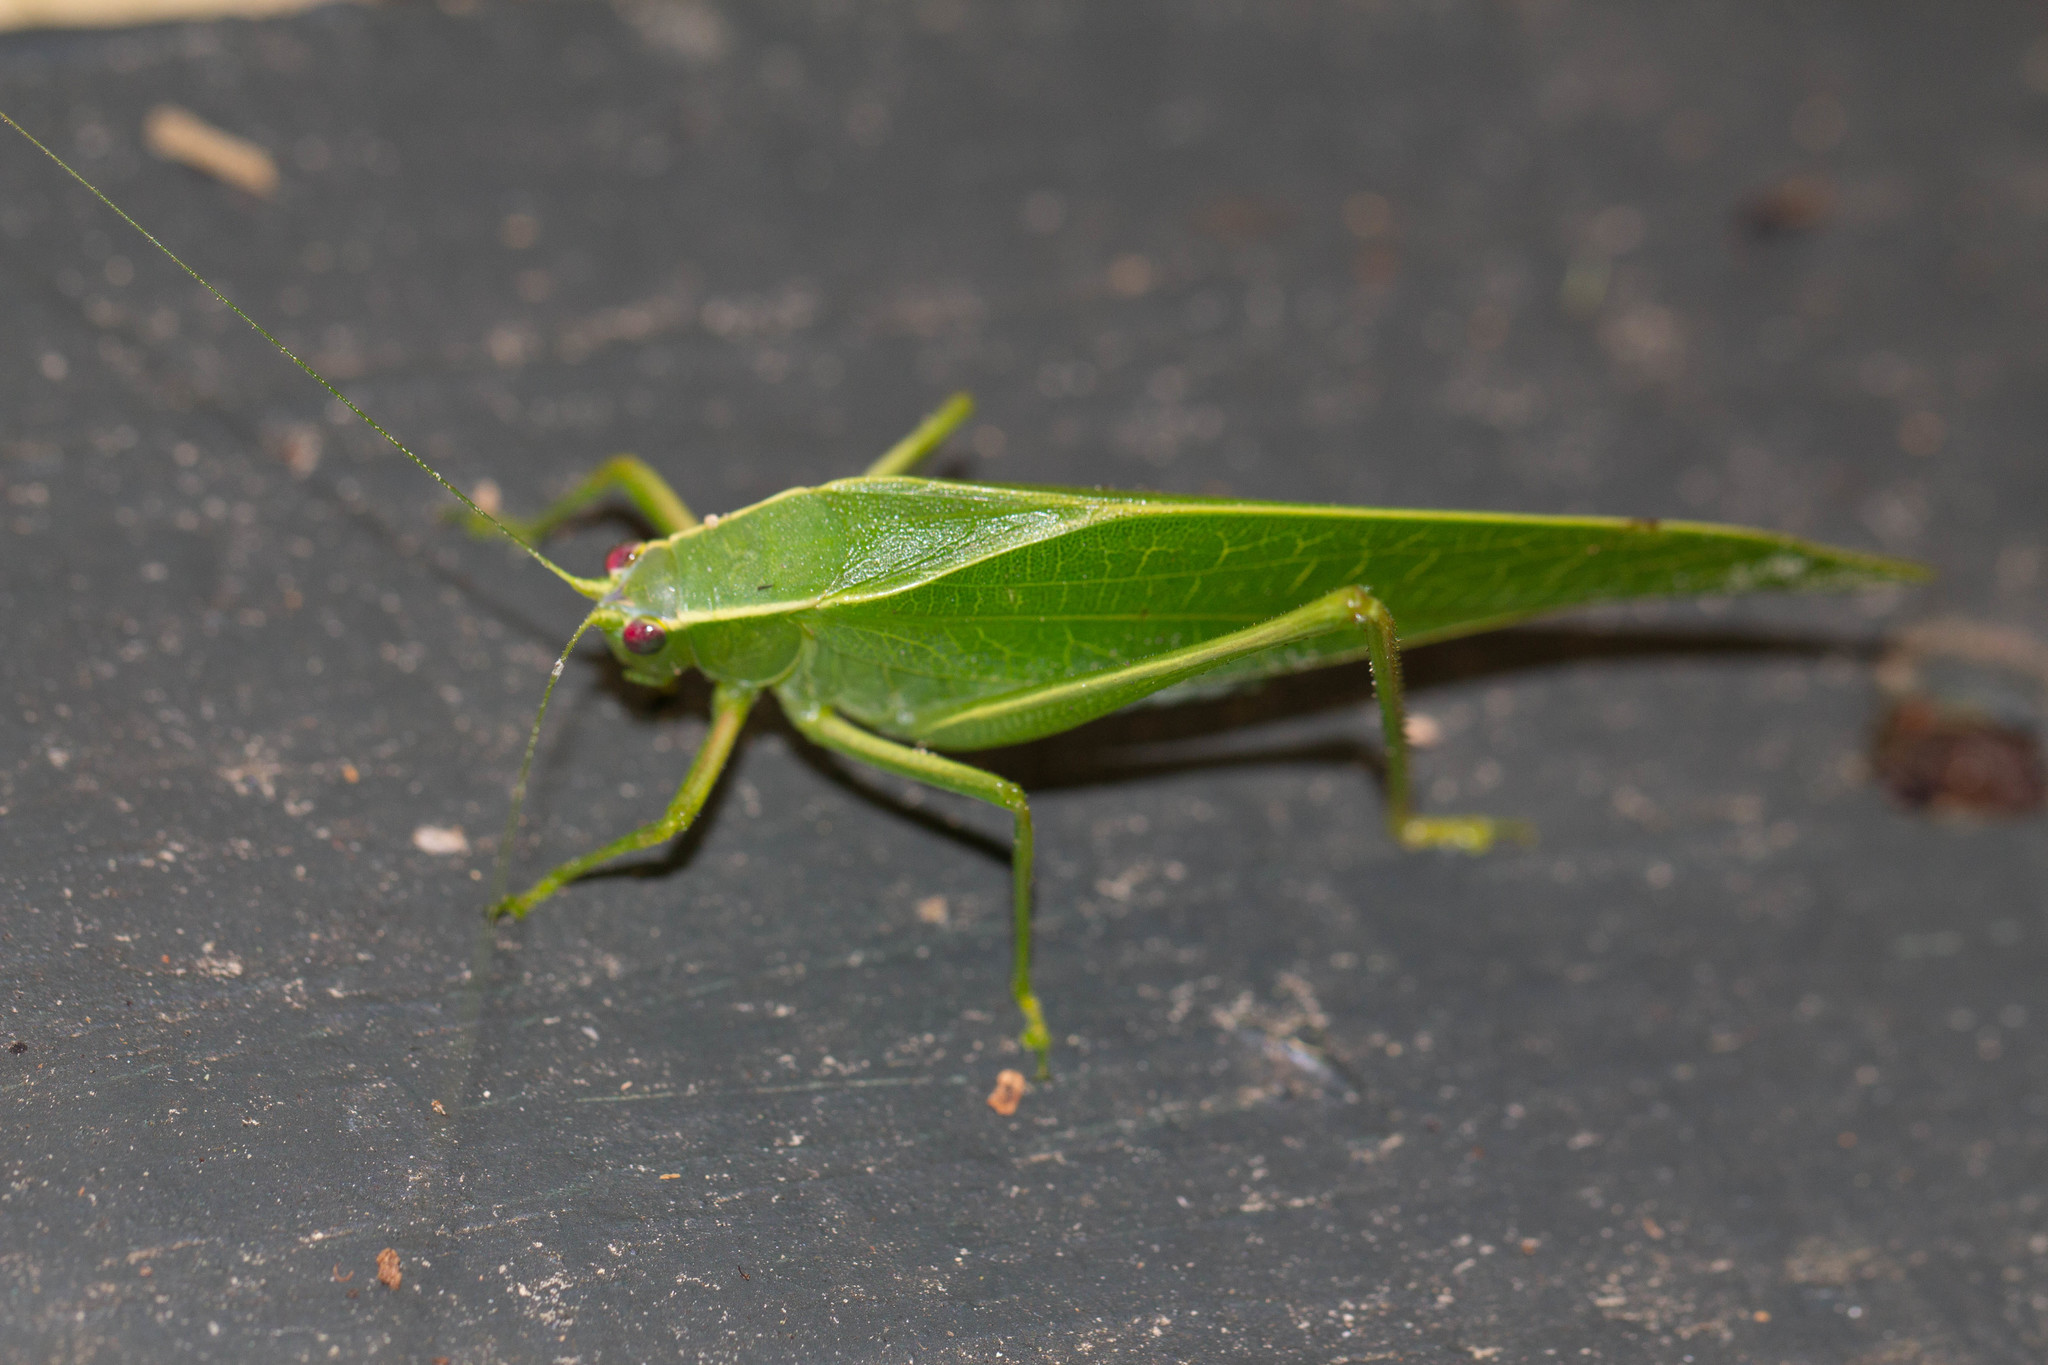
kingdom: Animalia
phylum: Arthropoda
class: Insecta
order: Orthoptera
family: Tettigoniidae
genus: Turpiliodes
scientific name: Turpiliodes mexicanum
